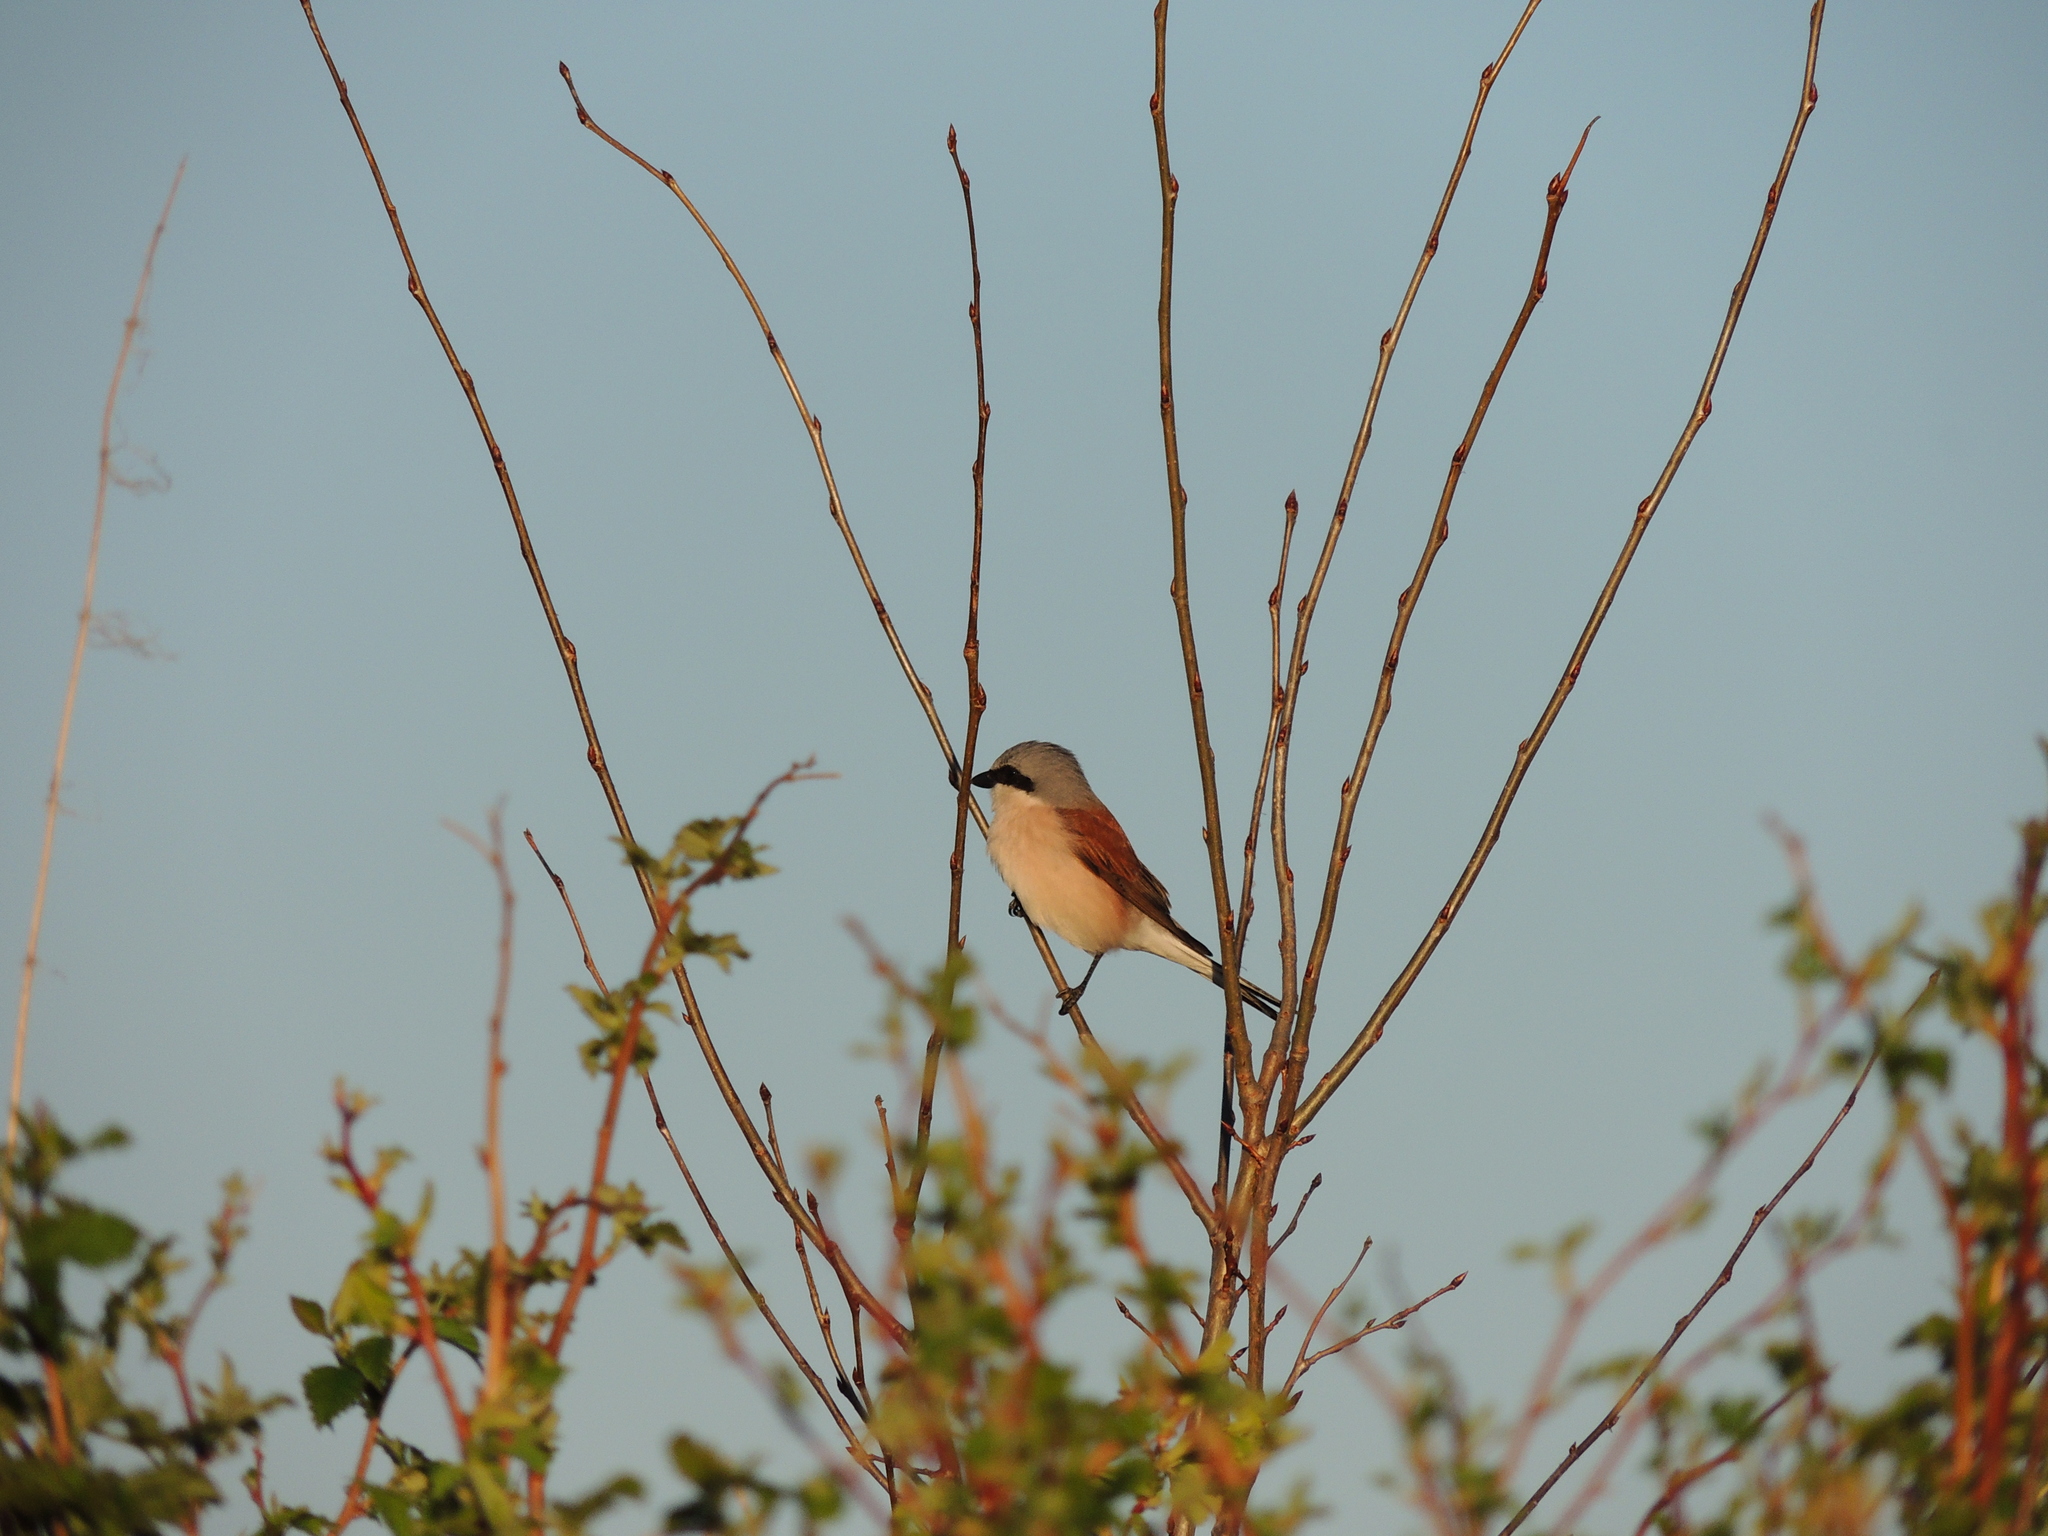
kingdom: Animalia
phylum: Chordata
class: Aves
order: Passeriformes
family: Laniidae
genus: Lanius
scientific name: Lanius collurio
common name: Red-backed shrike
